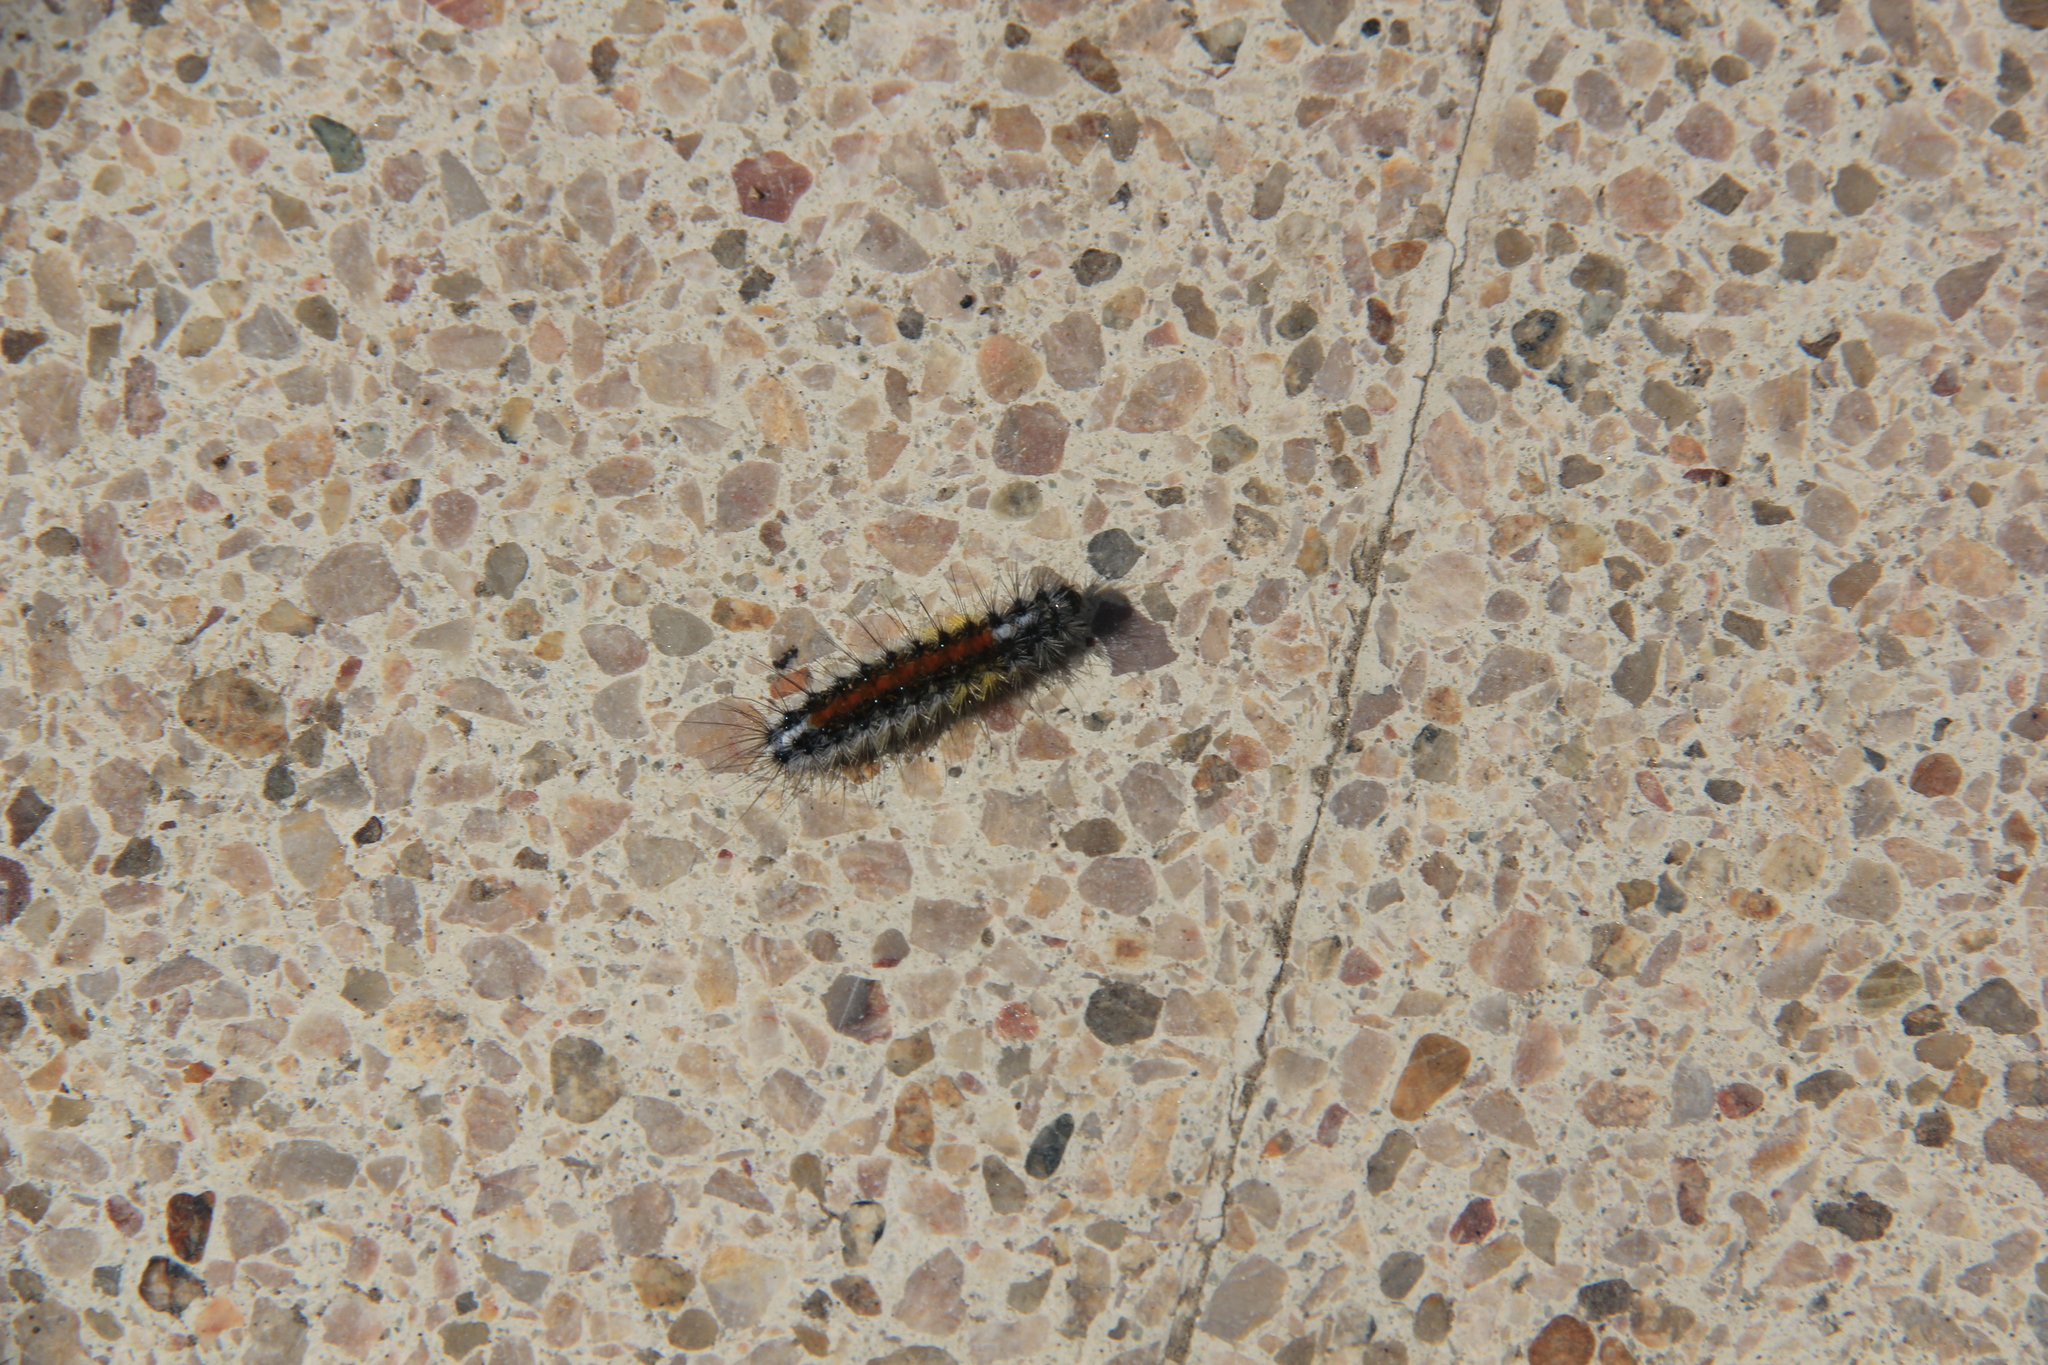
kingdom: Animalia
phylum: Arthropoda
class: Insecta
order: Lepidoptera
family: Erebidae
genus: Chilesia
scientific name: Chilesia
